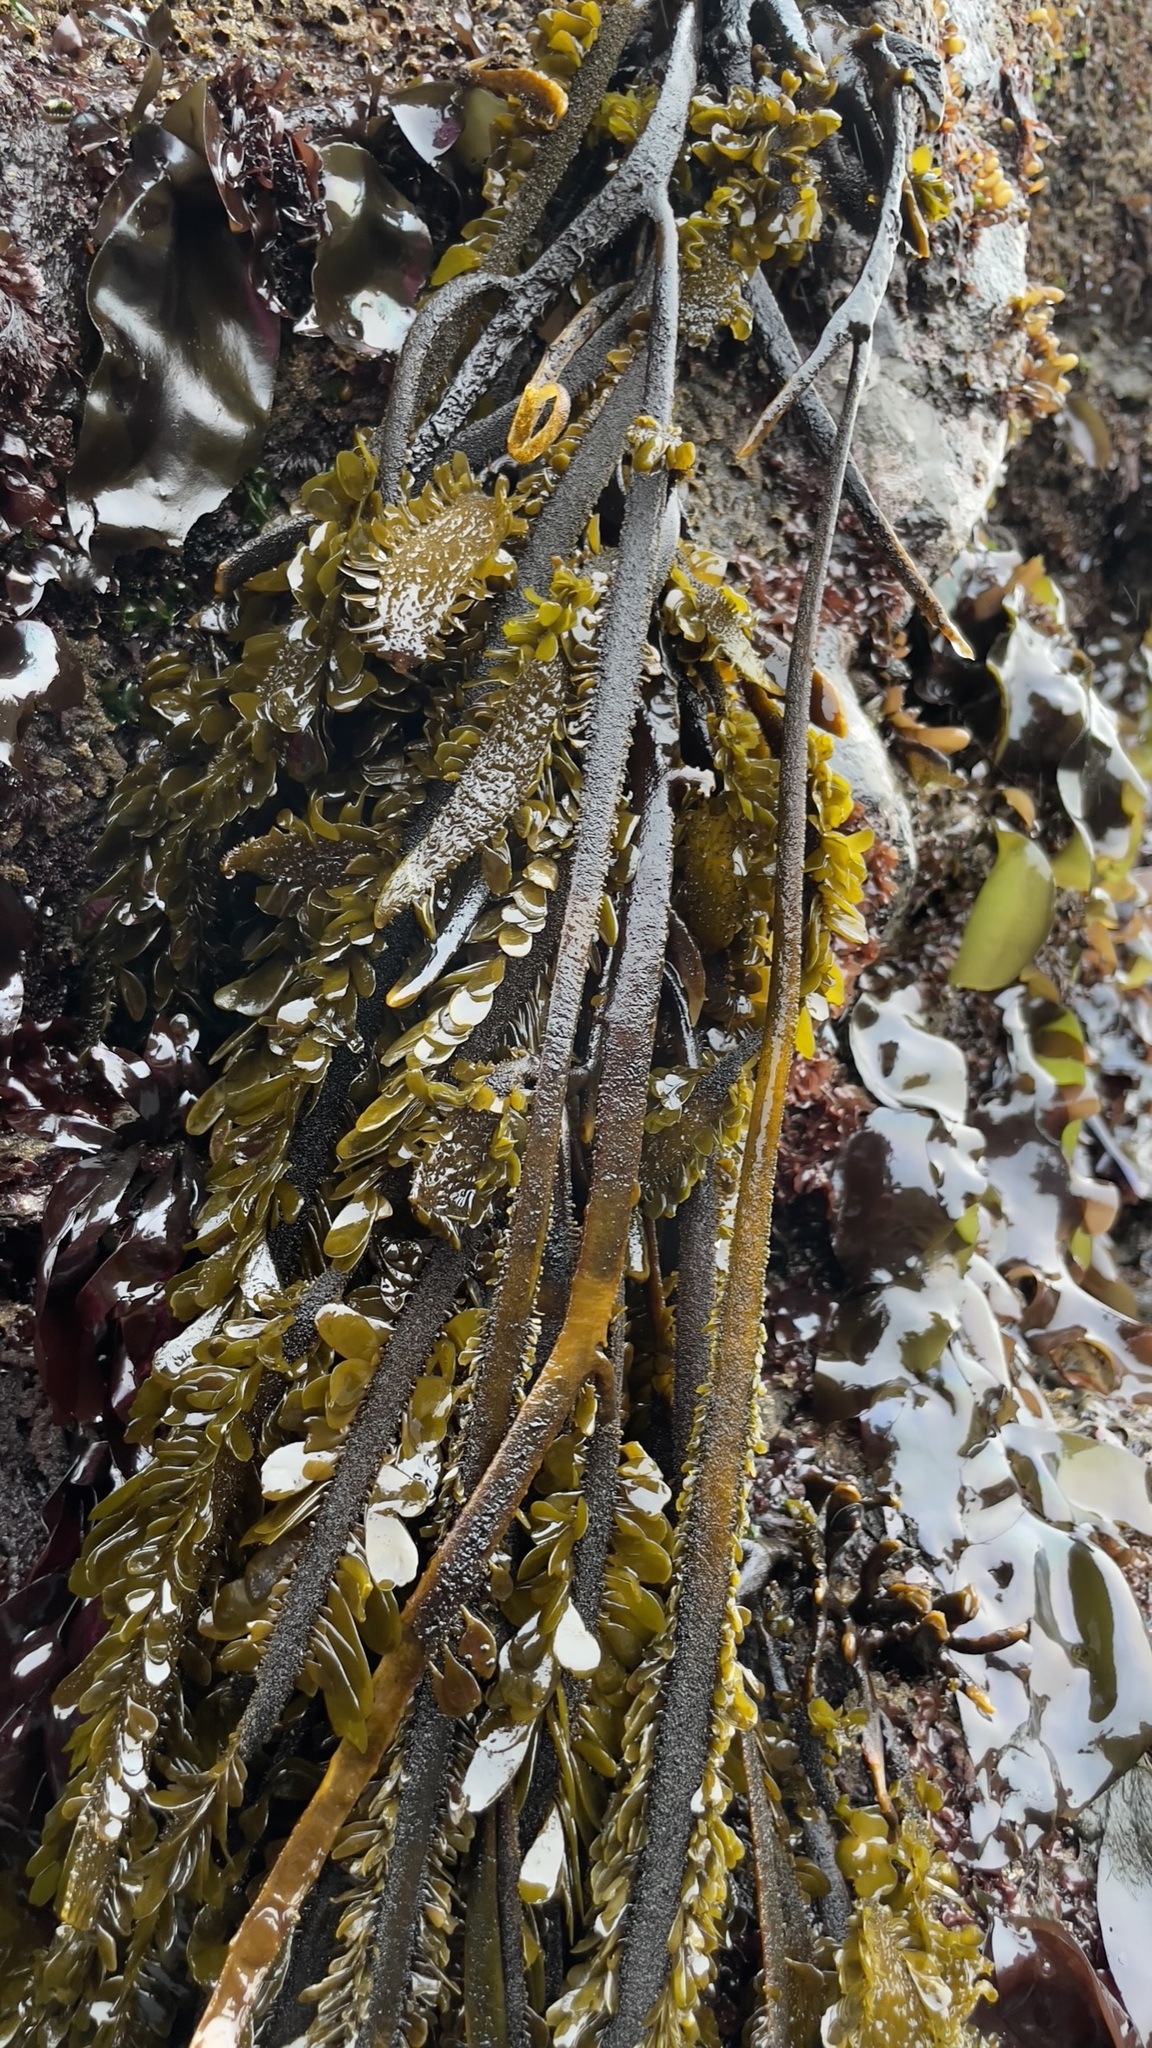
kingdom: Chromista
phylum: Ochrophyta
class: Phaeophyceae
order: Laminariales
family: Lessoniaceae
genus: Egregia
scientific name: Egregia menziesii
